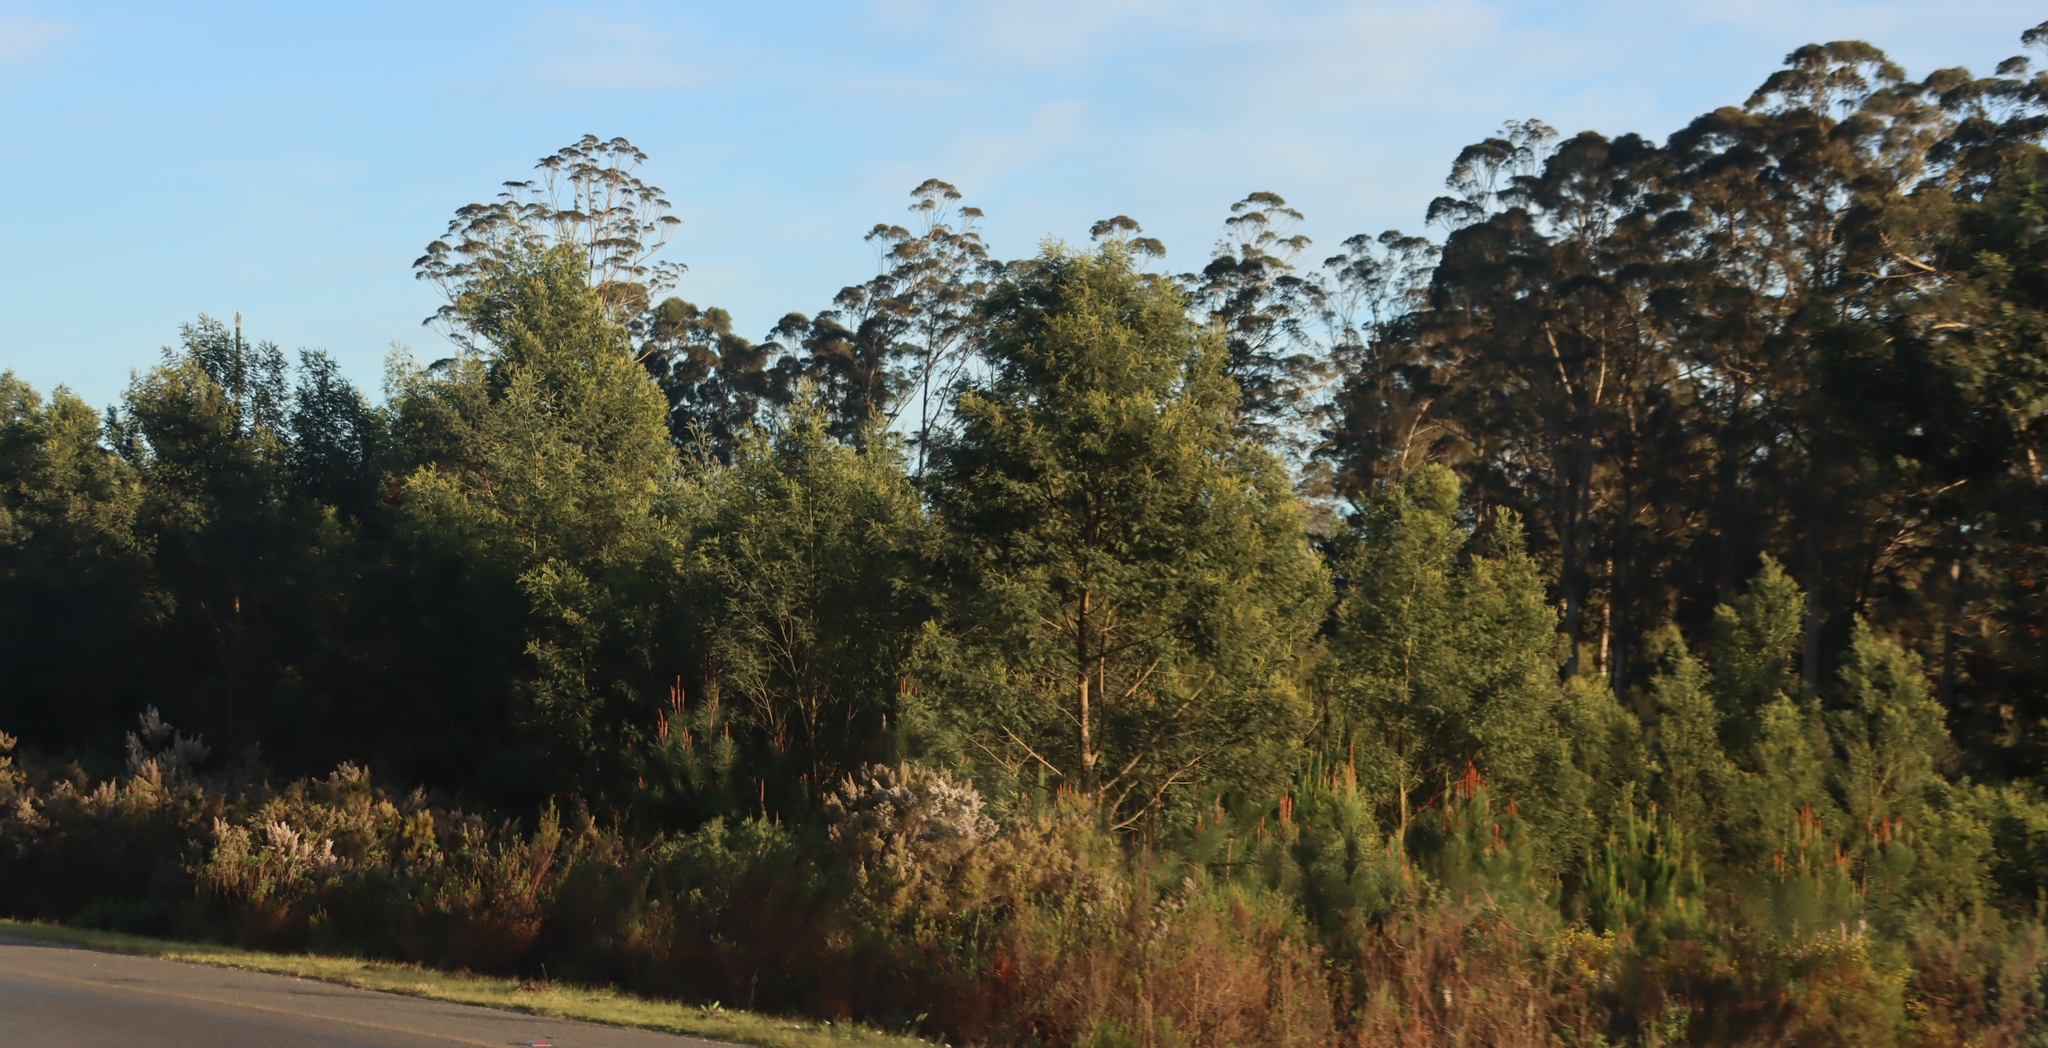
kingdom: Plantae
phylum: Tracheophyta
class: Magnoliopsida
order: Fabales
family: Fabaceae
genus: Acacia
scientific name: Acacia mearnsii
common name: Black wattle
